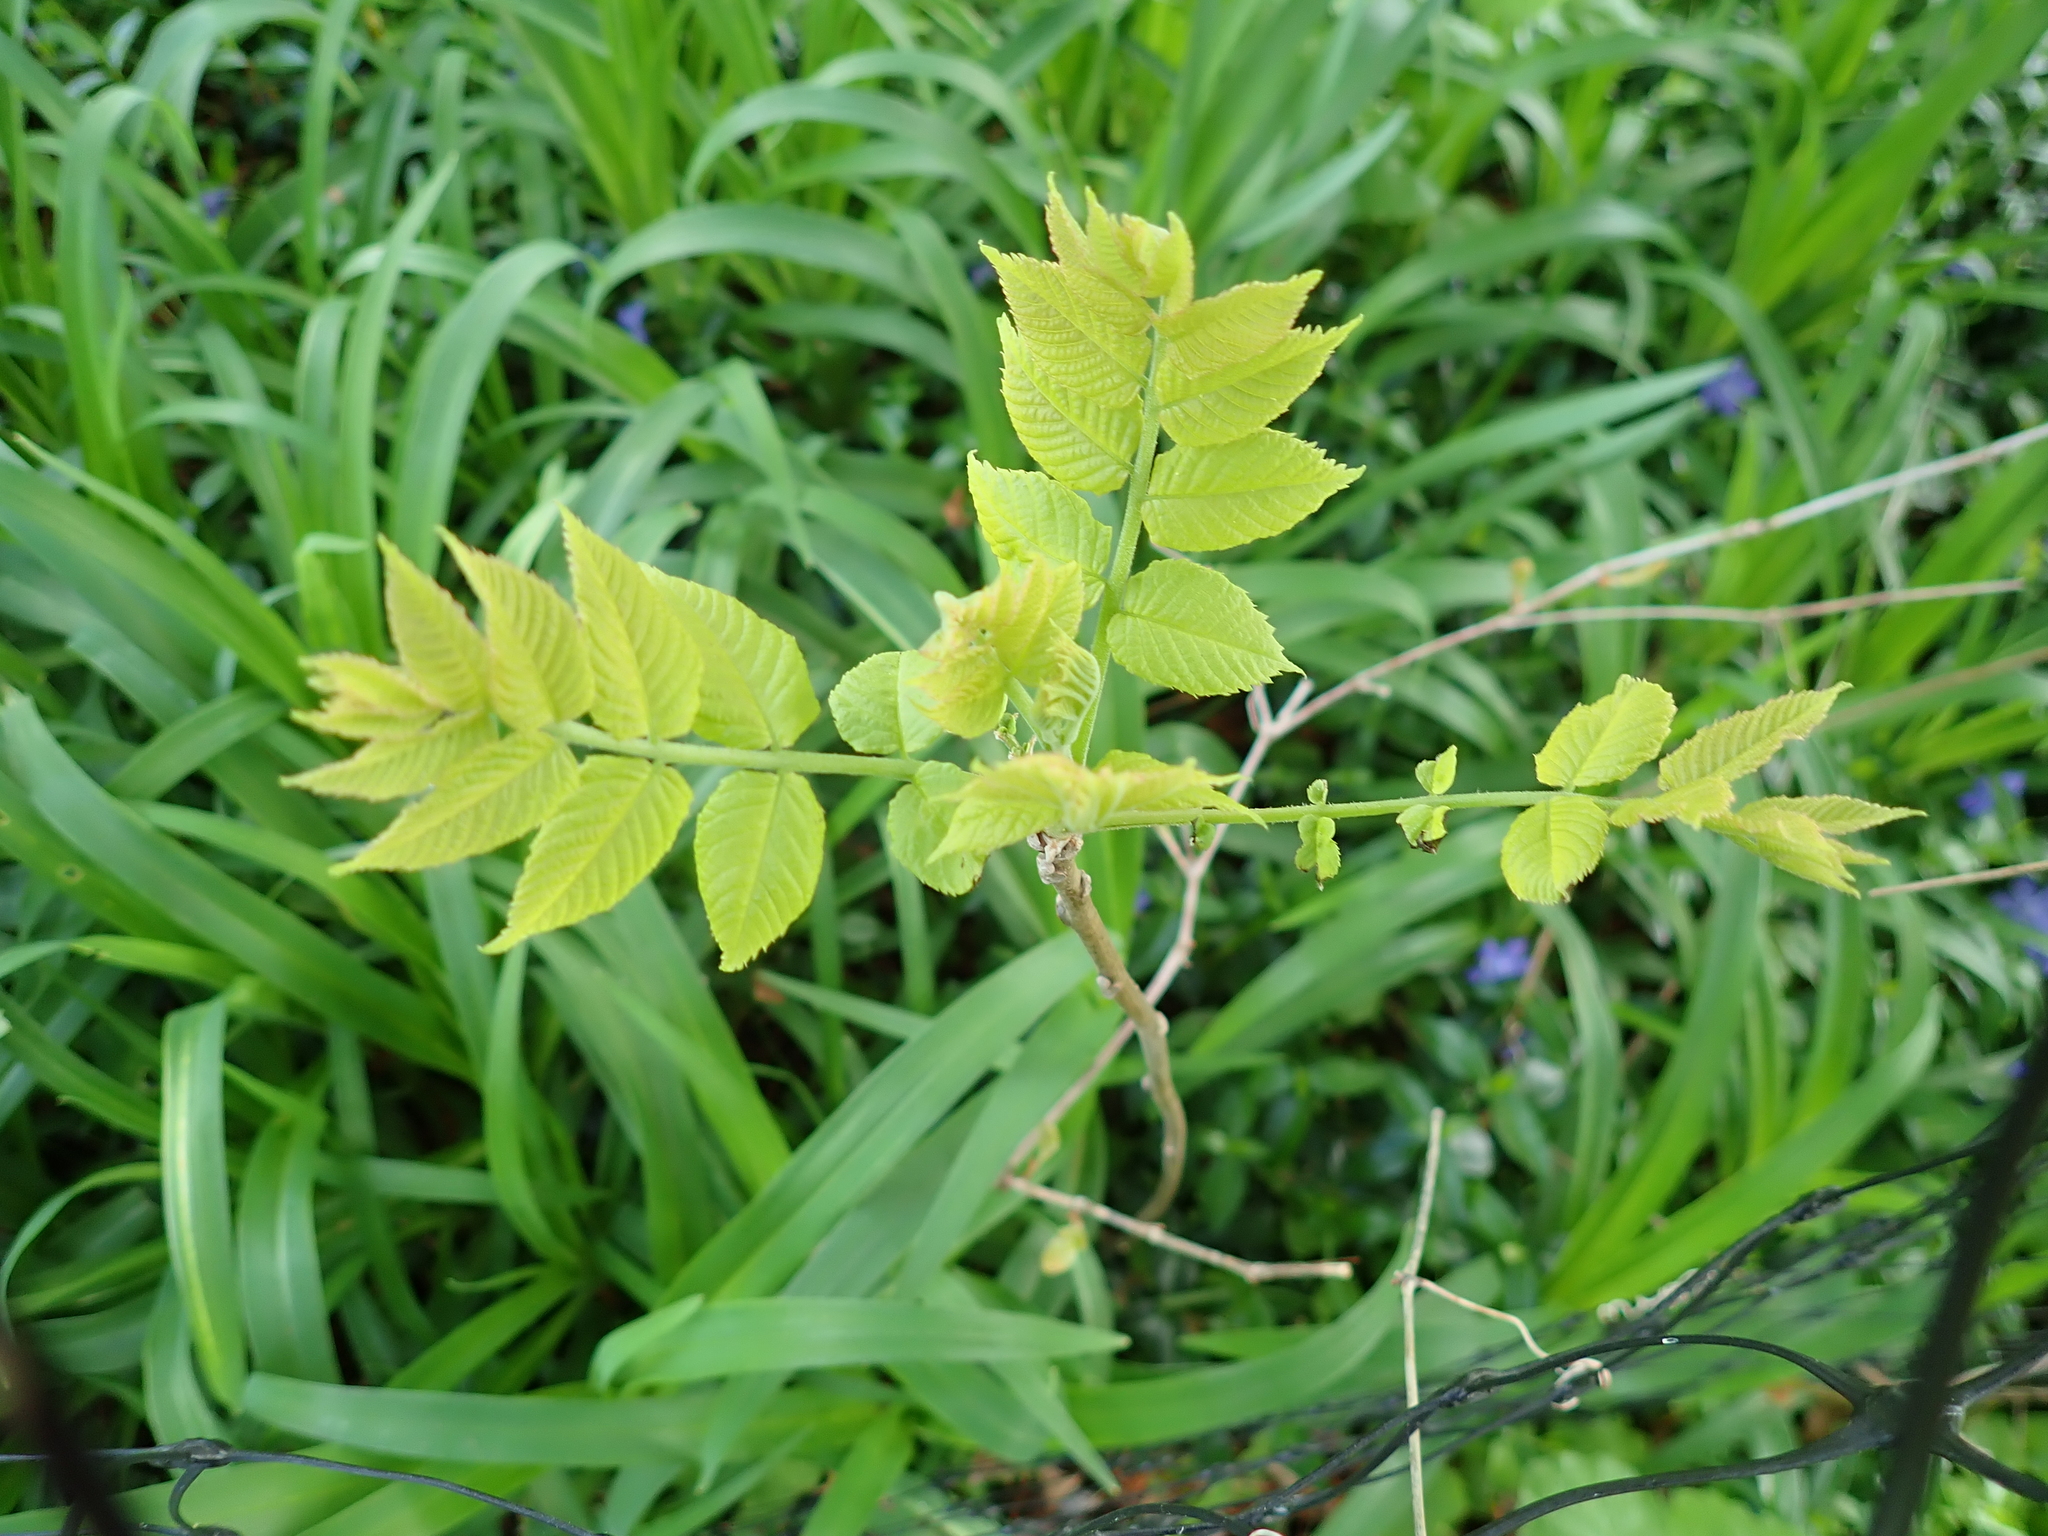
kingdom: Plantae
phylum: Tracheophyta
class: Magnoliopsida
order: Fagales
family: Juglandaceae
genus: Juglans
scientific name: Juglans nigra
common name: Black walnut
